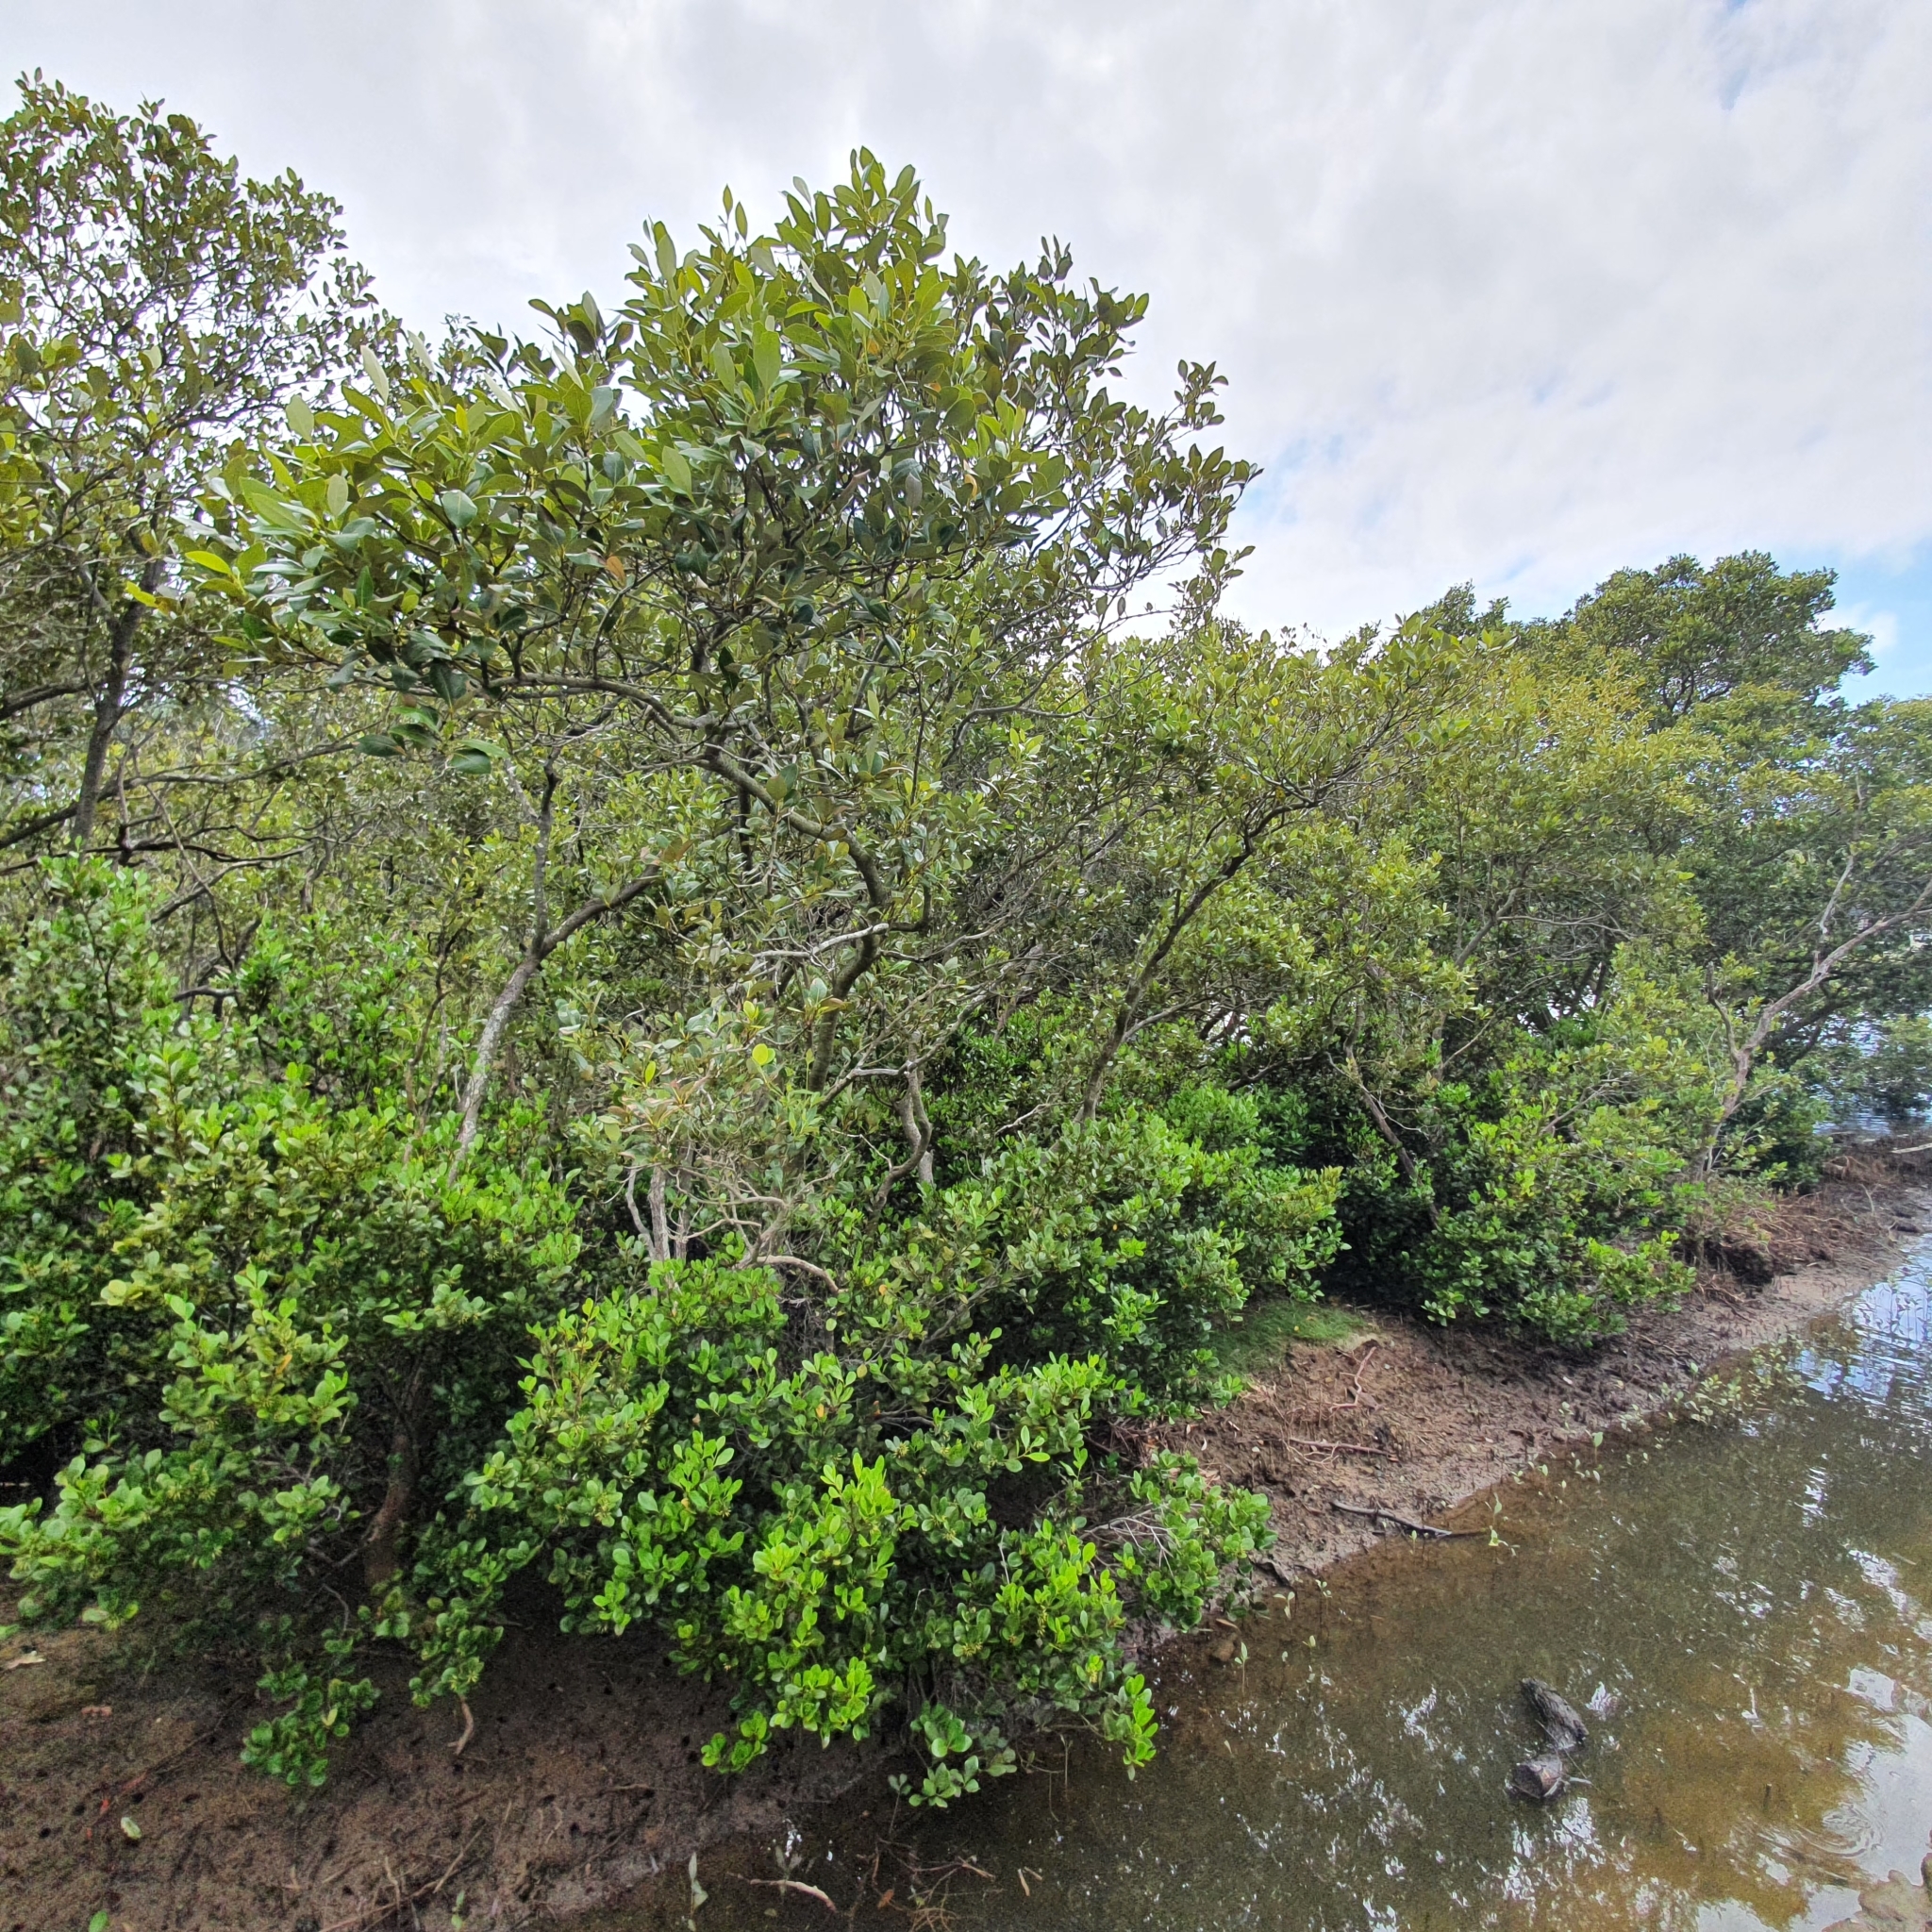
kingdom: Plantae
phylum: Tracheophyta
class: Magnoliopsida
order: Lamiales
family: Acanthaceae
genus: Avicennia
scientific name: Avicennia marina
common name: Gray mangrove
